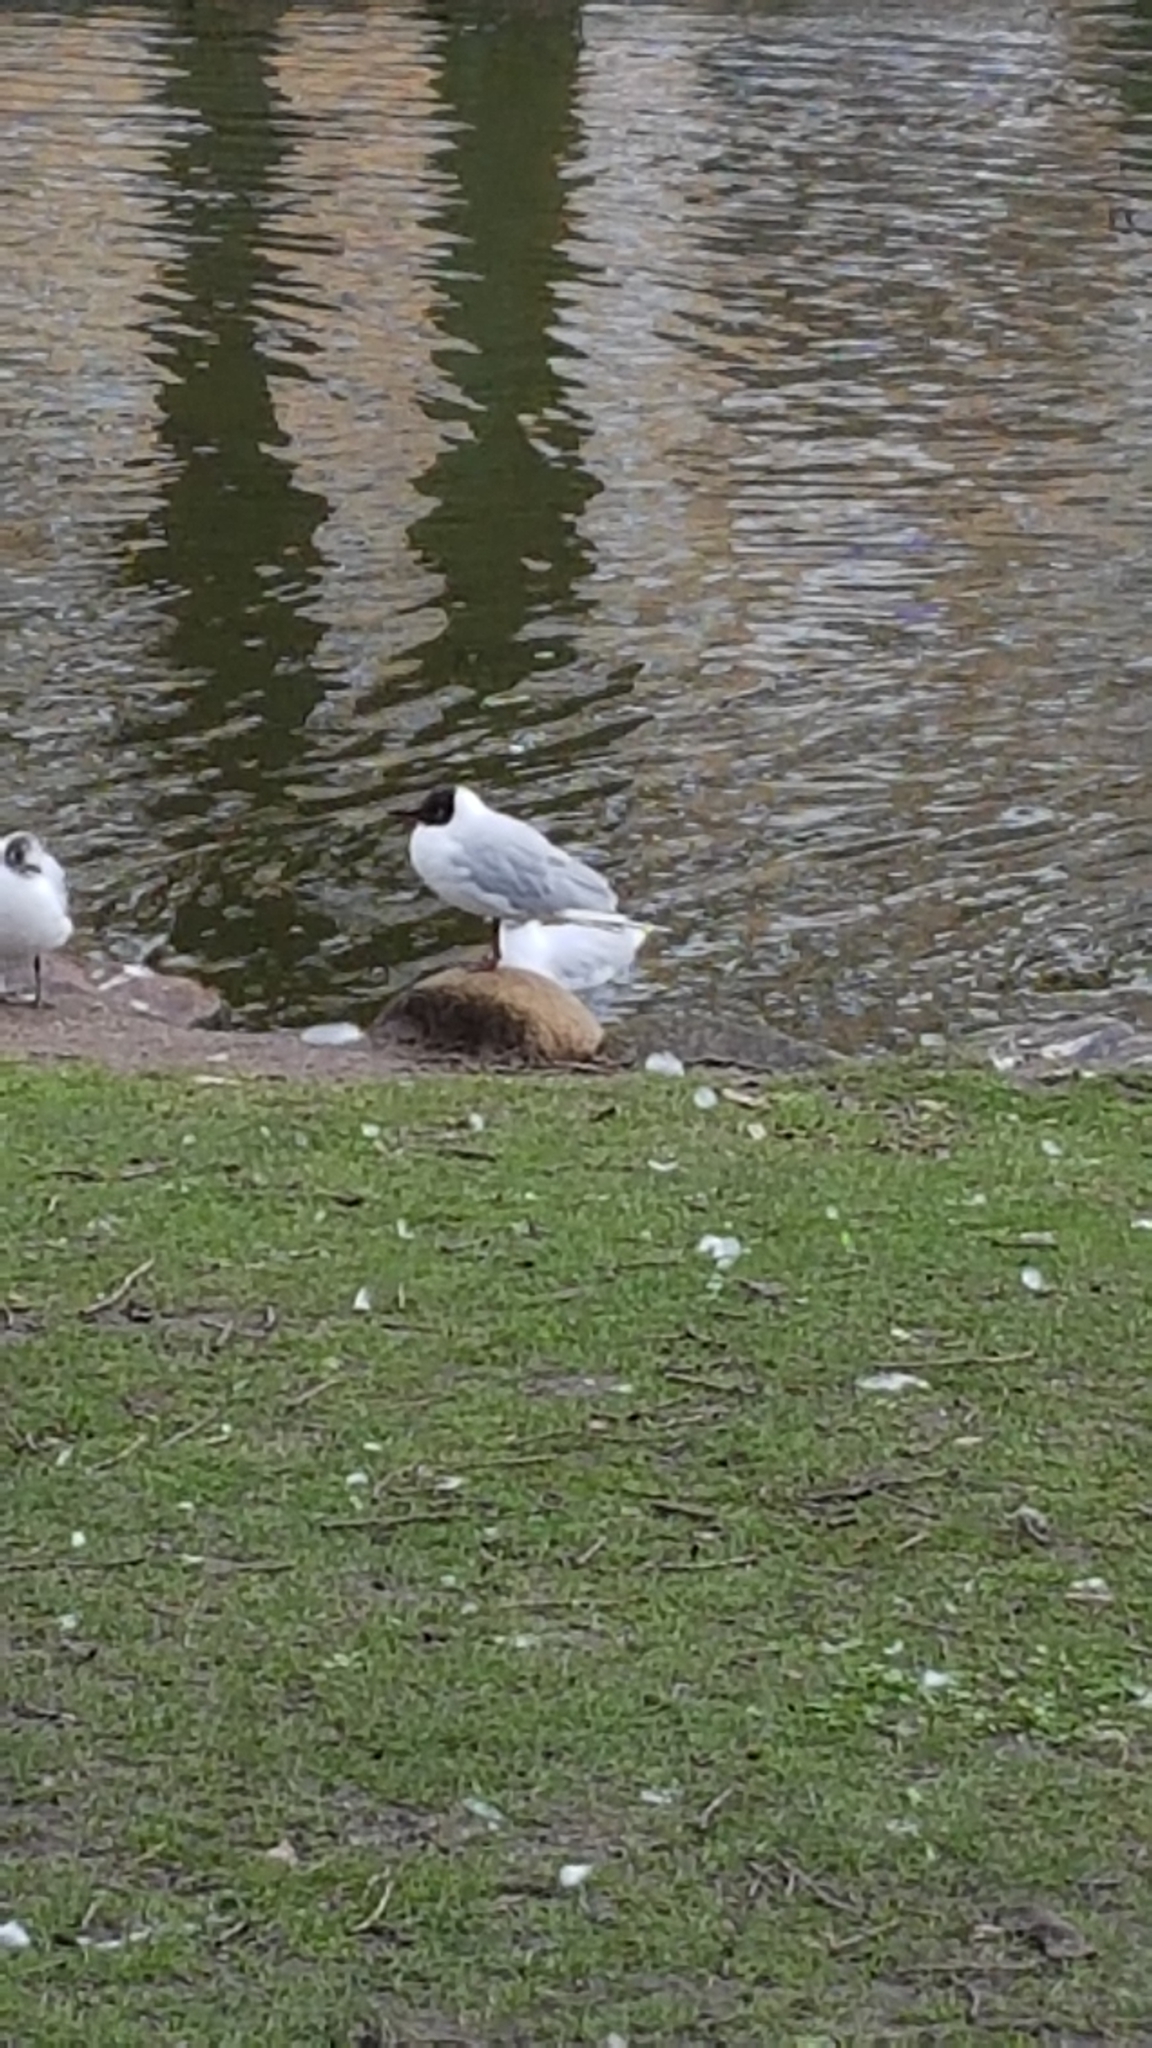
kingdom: Animalia
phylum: Chordata
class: Aves
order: Charadriiformes
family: Laridae
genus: Chroicocephalus
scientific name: Chroicocephalus ridibundus
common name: Black-headed gull
